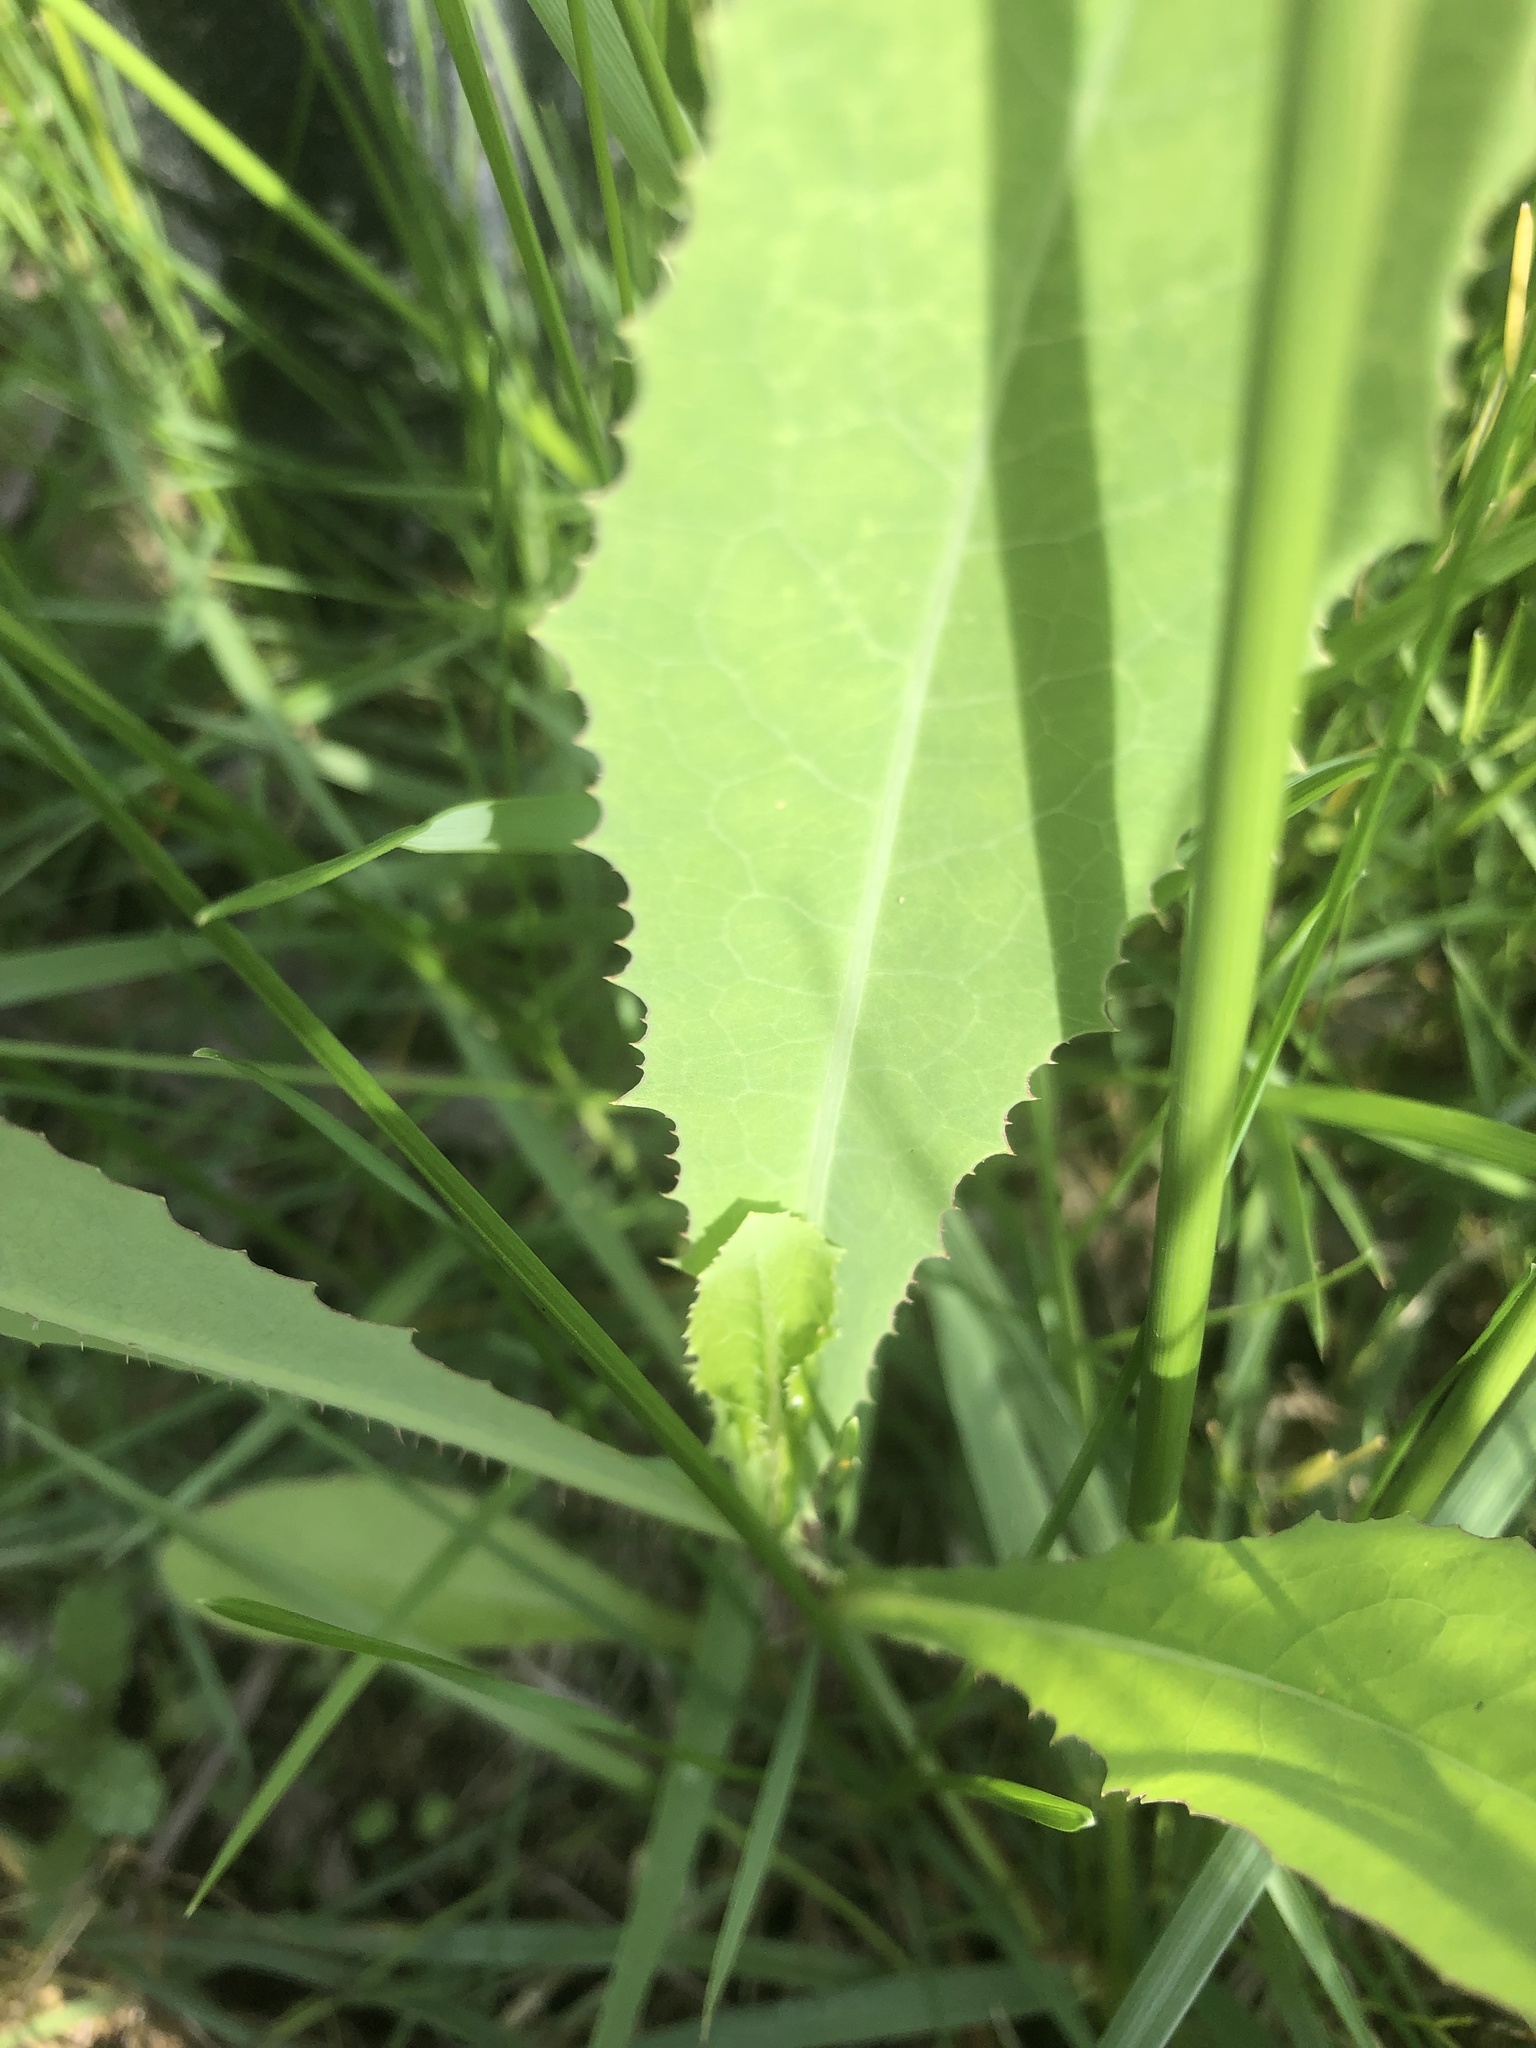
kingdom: Plantae
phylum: Tracheophyta
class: Magnoliopsida
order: Asterales
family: Asteraceae
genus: Lactuca
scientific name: Lactuca serriola
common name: Prickly lettuce
